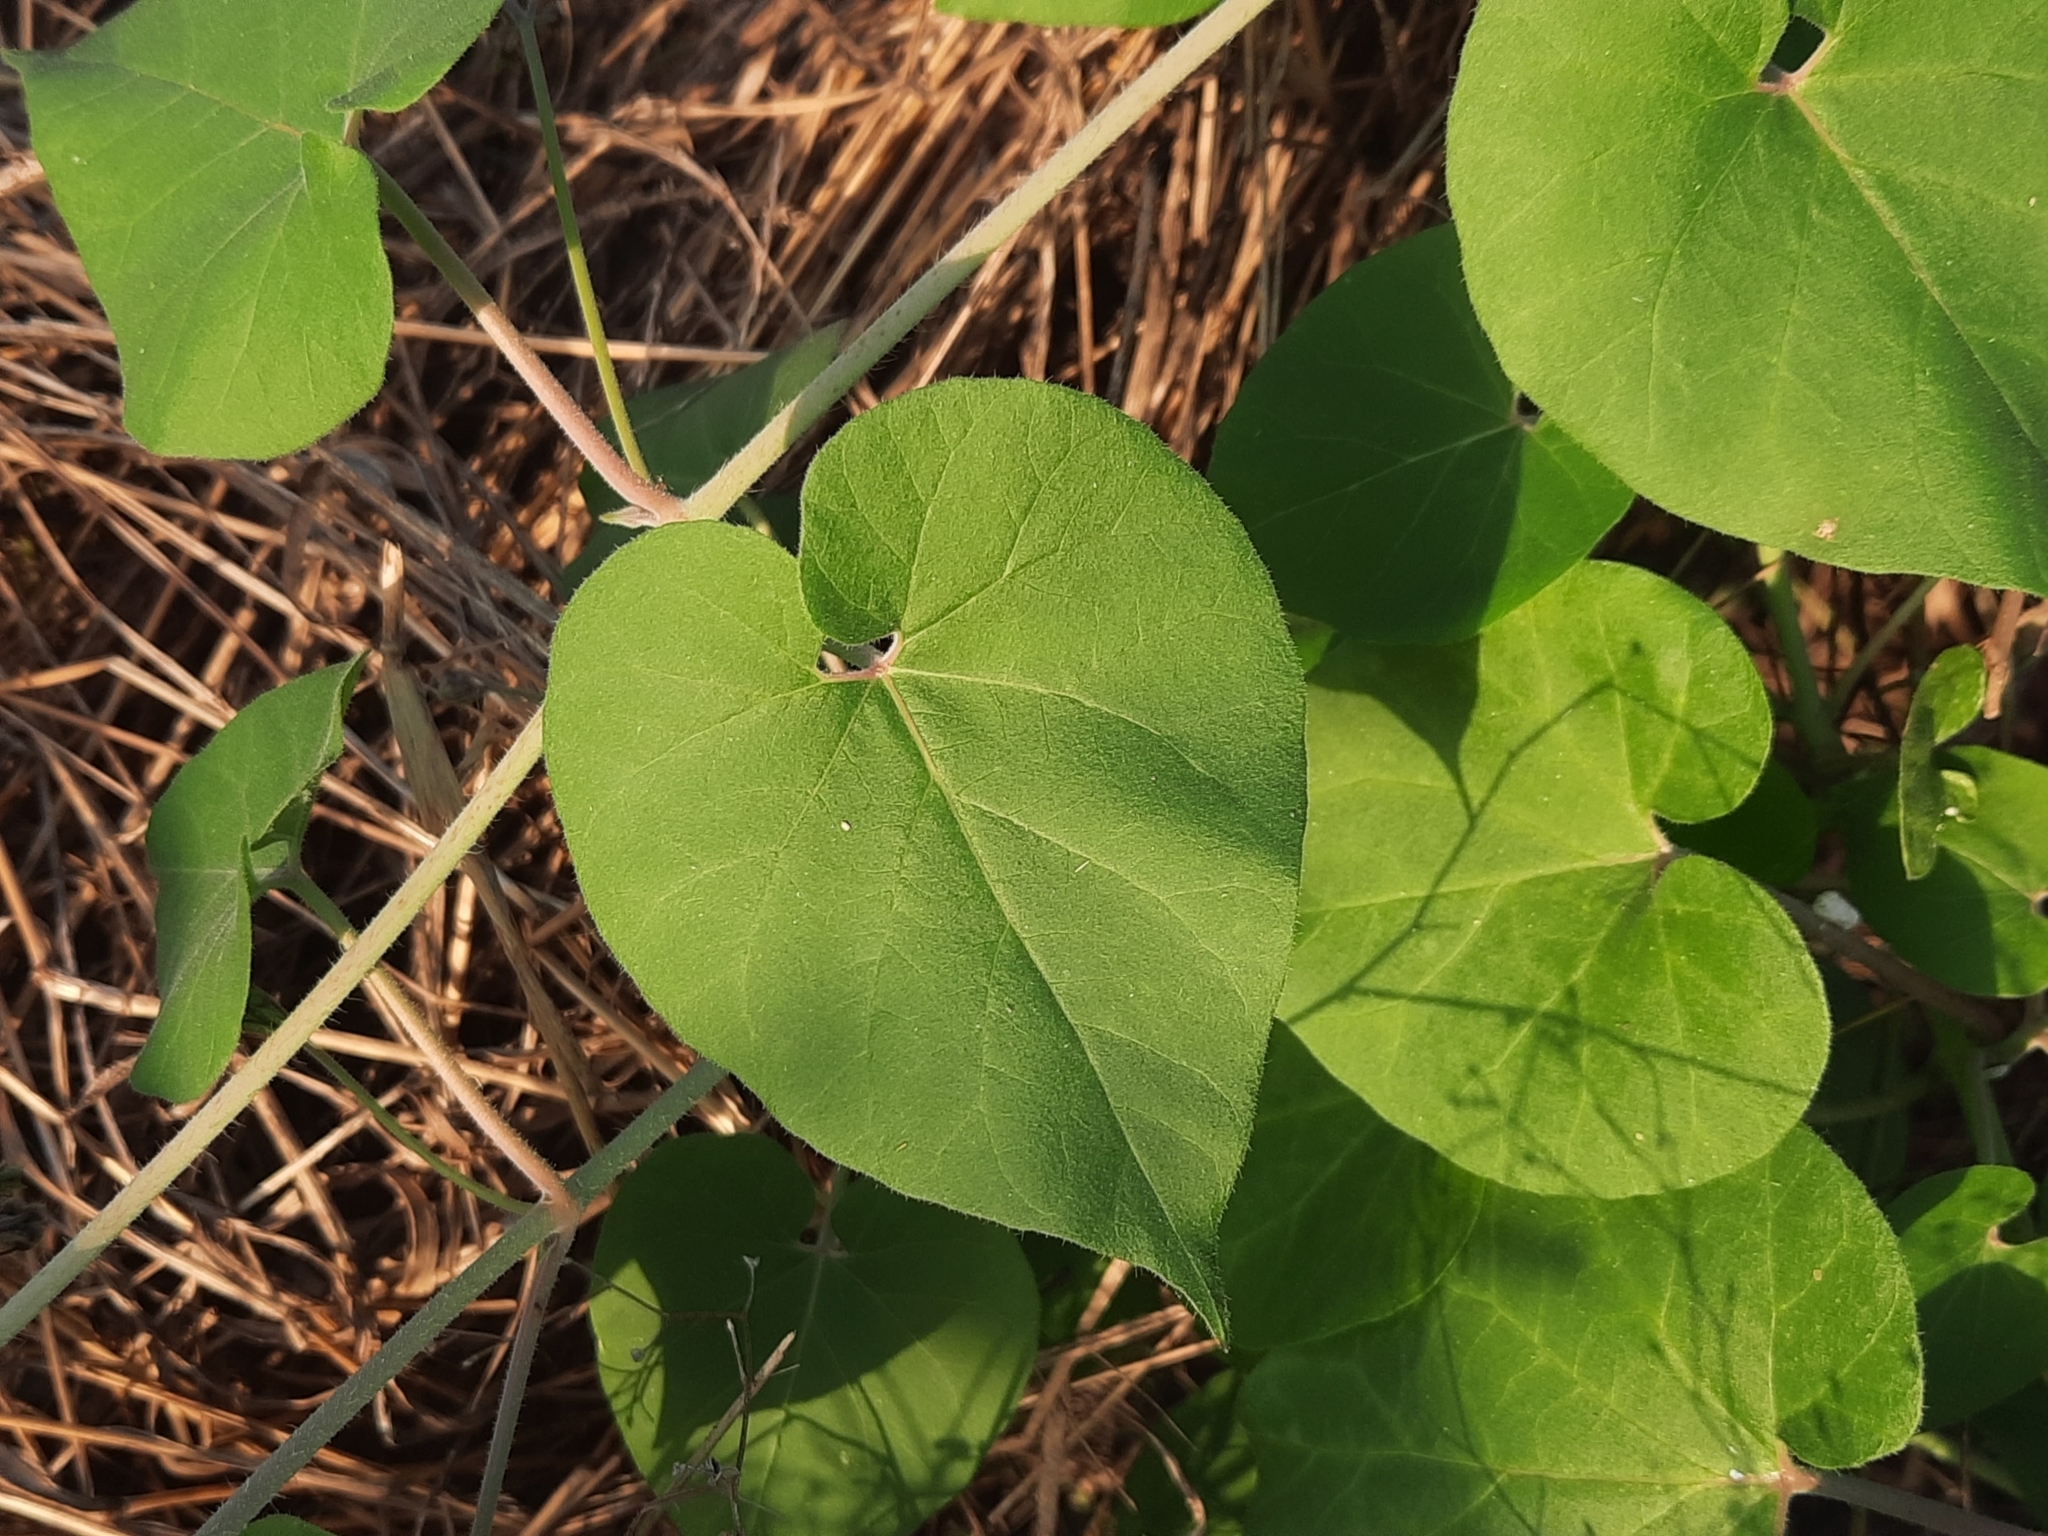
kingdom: Plantae
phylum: Tracheophyta
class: Magnoliopsida
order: Gentianales
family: Apocynaceae
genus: Pergularia
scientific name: Pergularia daemia
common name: Trellis-vine
